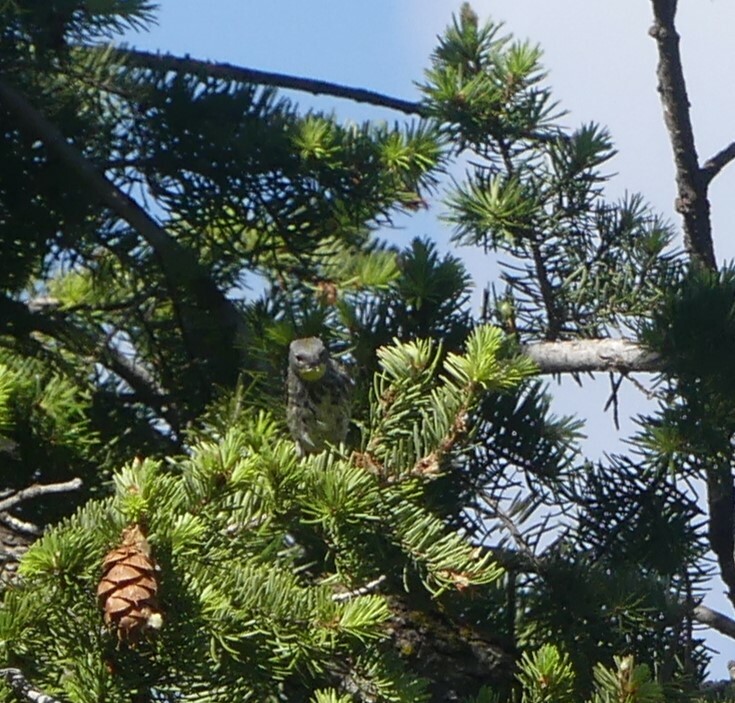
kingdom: Animalia
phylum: Chordata
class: Aves
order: Passeriformes
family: Parulidae
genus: Setophaga
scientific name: Setophaga coronata
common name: Myrtle warbler
